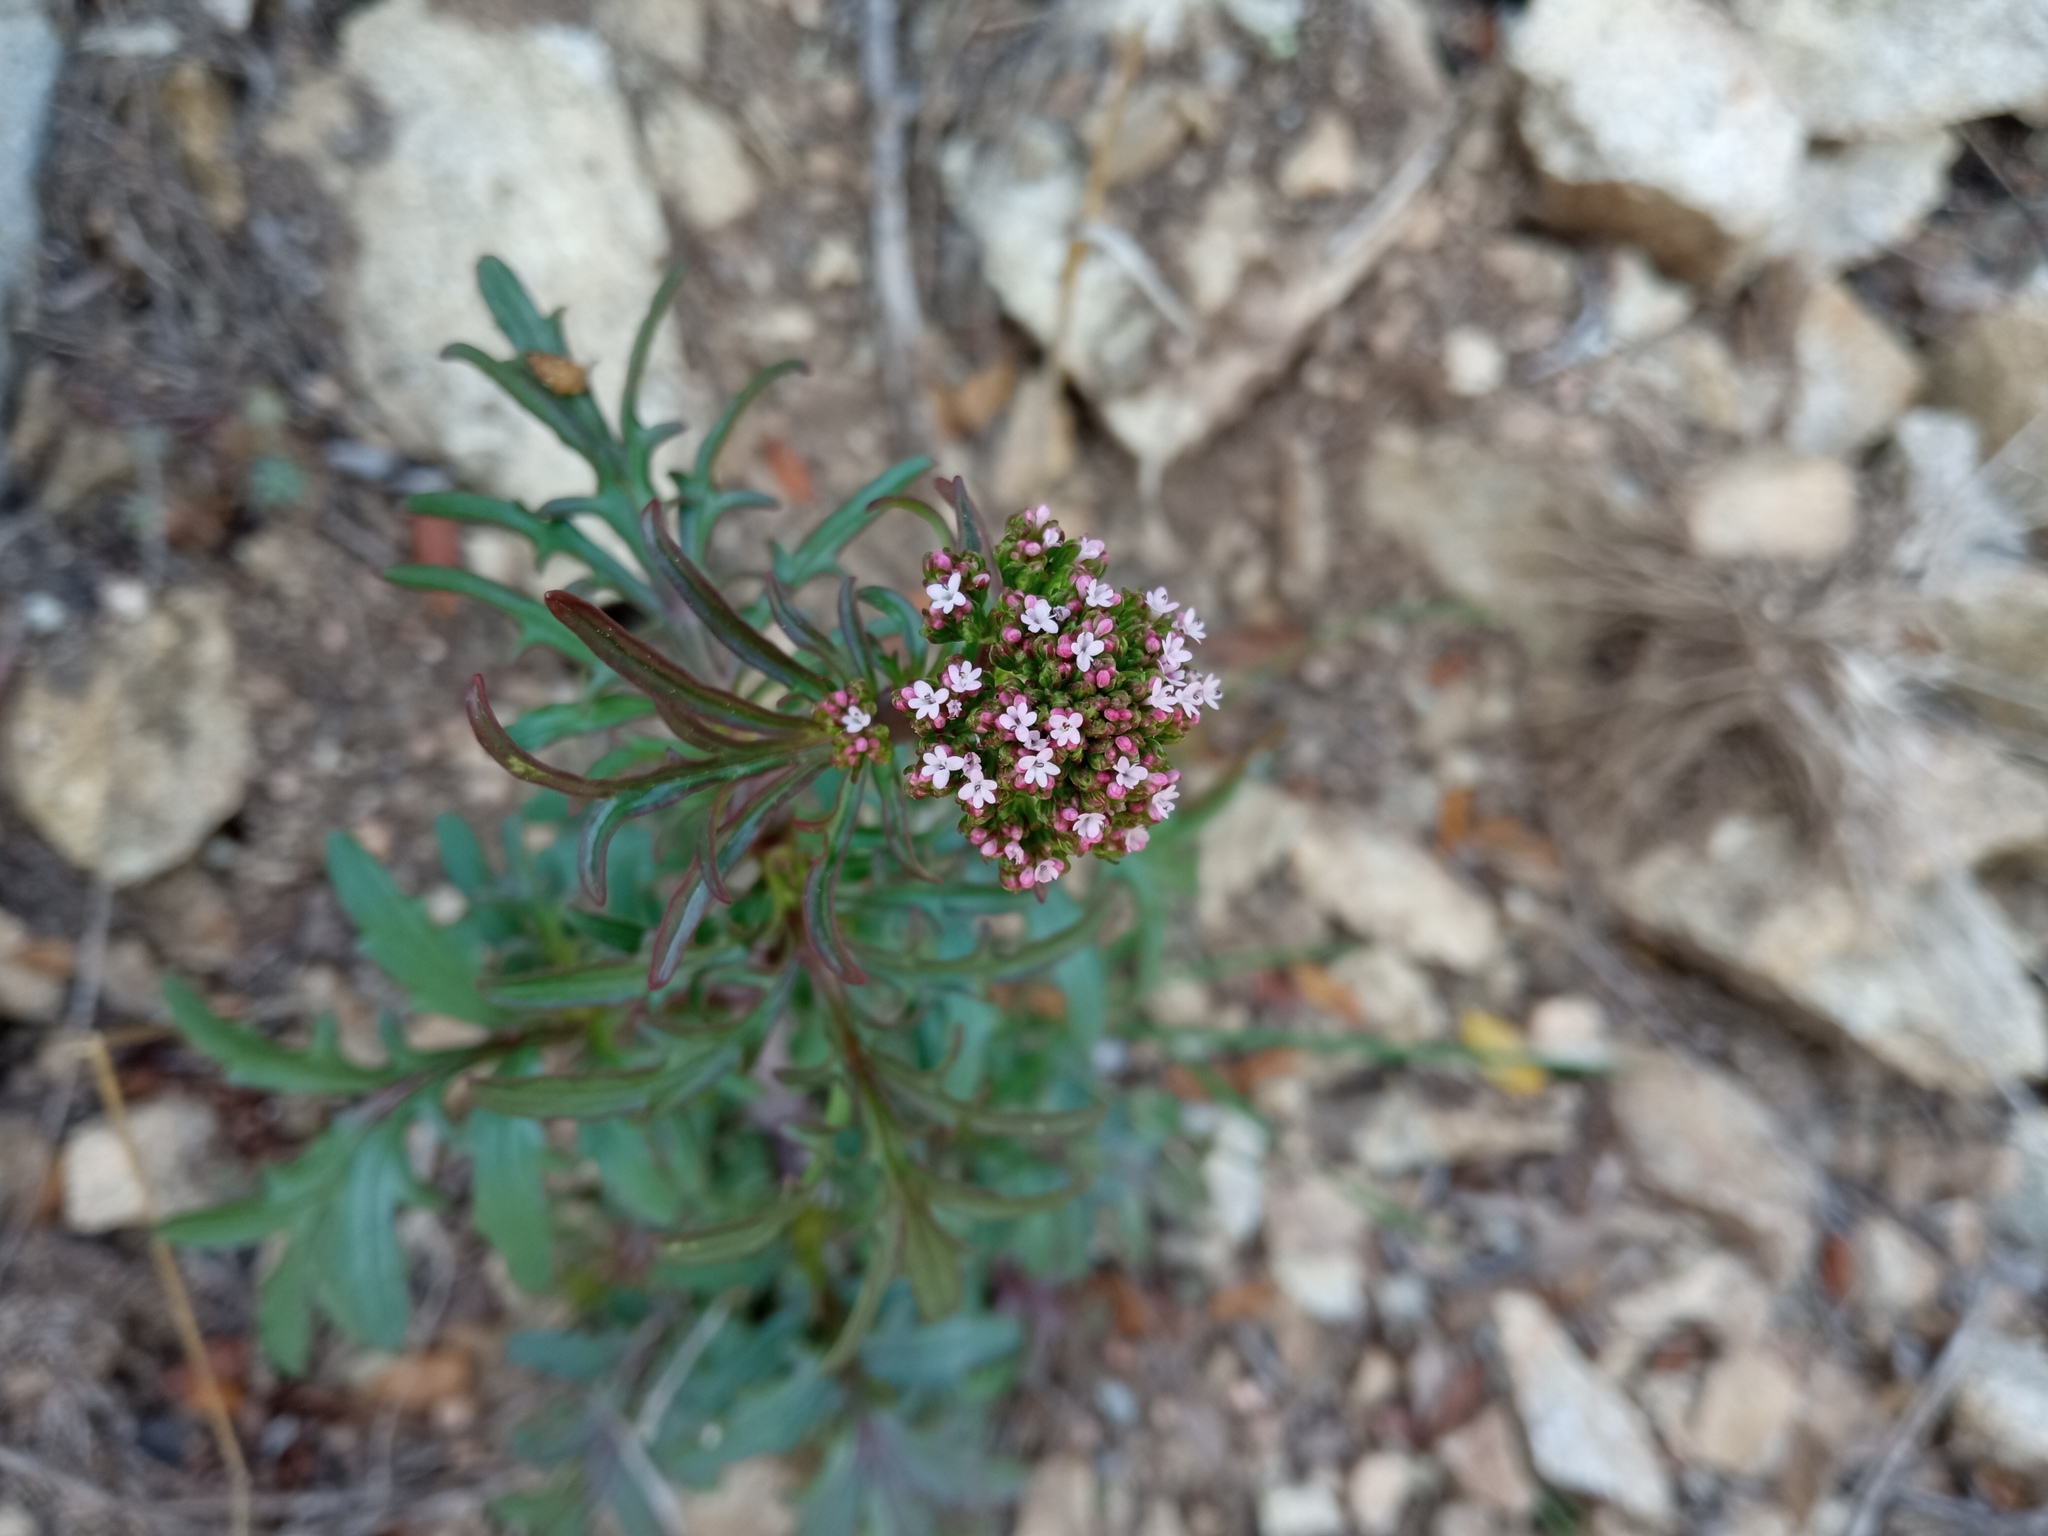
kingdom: Plantae
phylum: Tracheophyta
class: Magnoliopsida
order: Dipsacales
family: Caprifoliaceae
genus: Centranthus
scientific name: Centranthus calcitrapae
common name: Annual valerian
